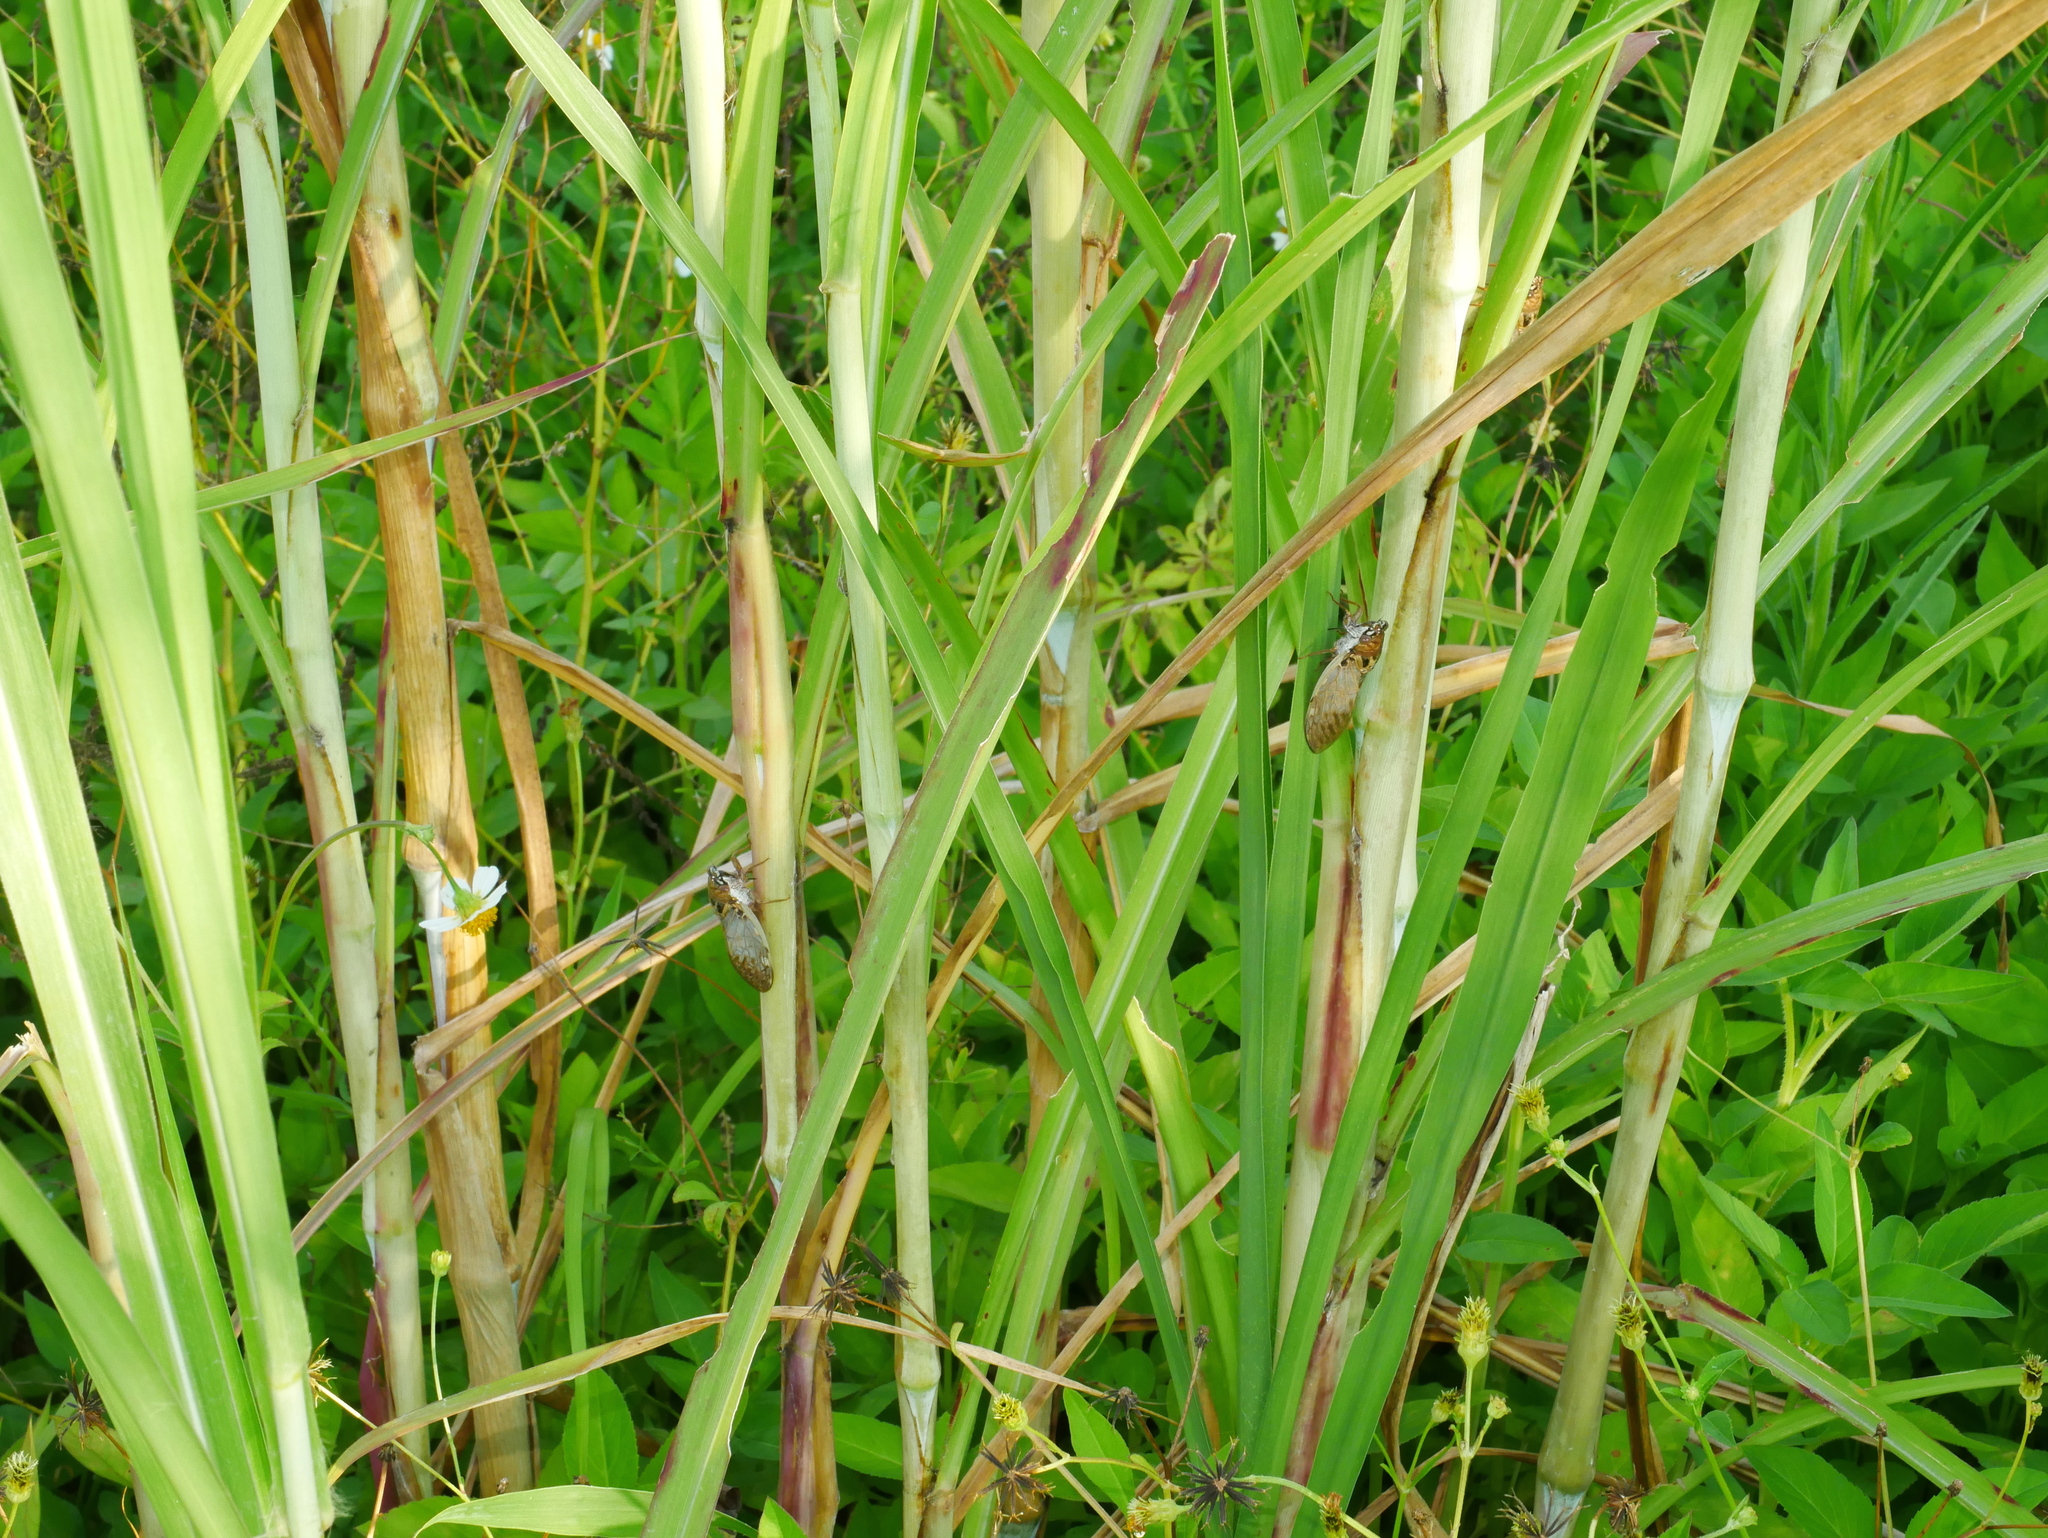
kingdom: Animalia
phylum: Arthropoda
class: Insecta
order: Hemiptera
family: Cicadidae
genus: Platypleura
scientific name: Platypleura hilpa
